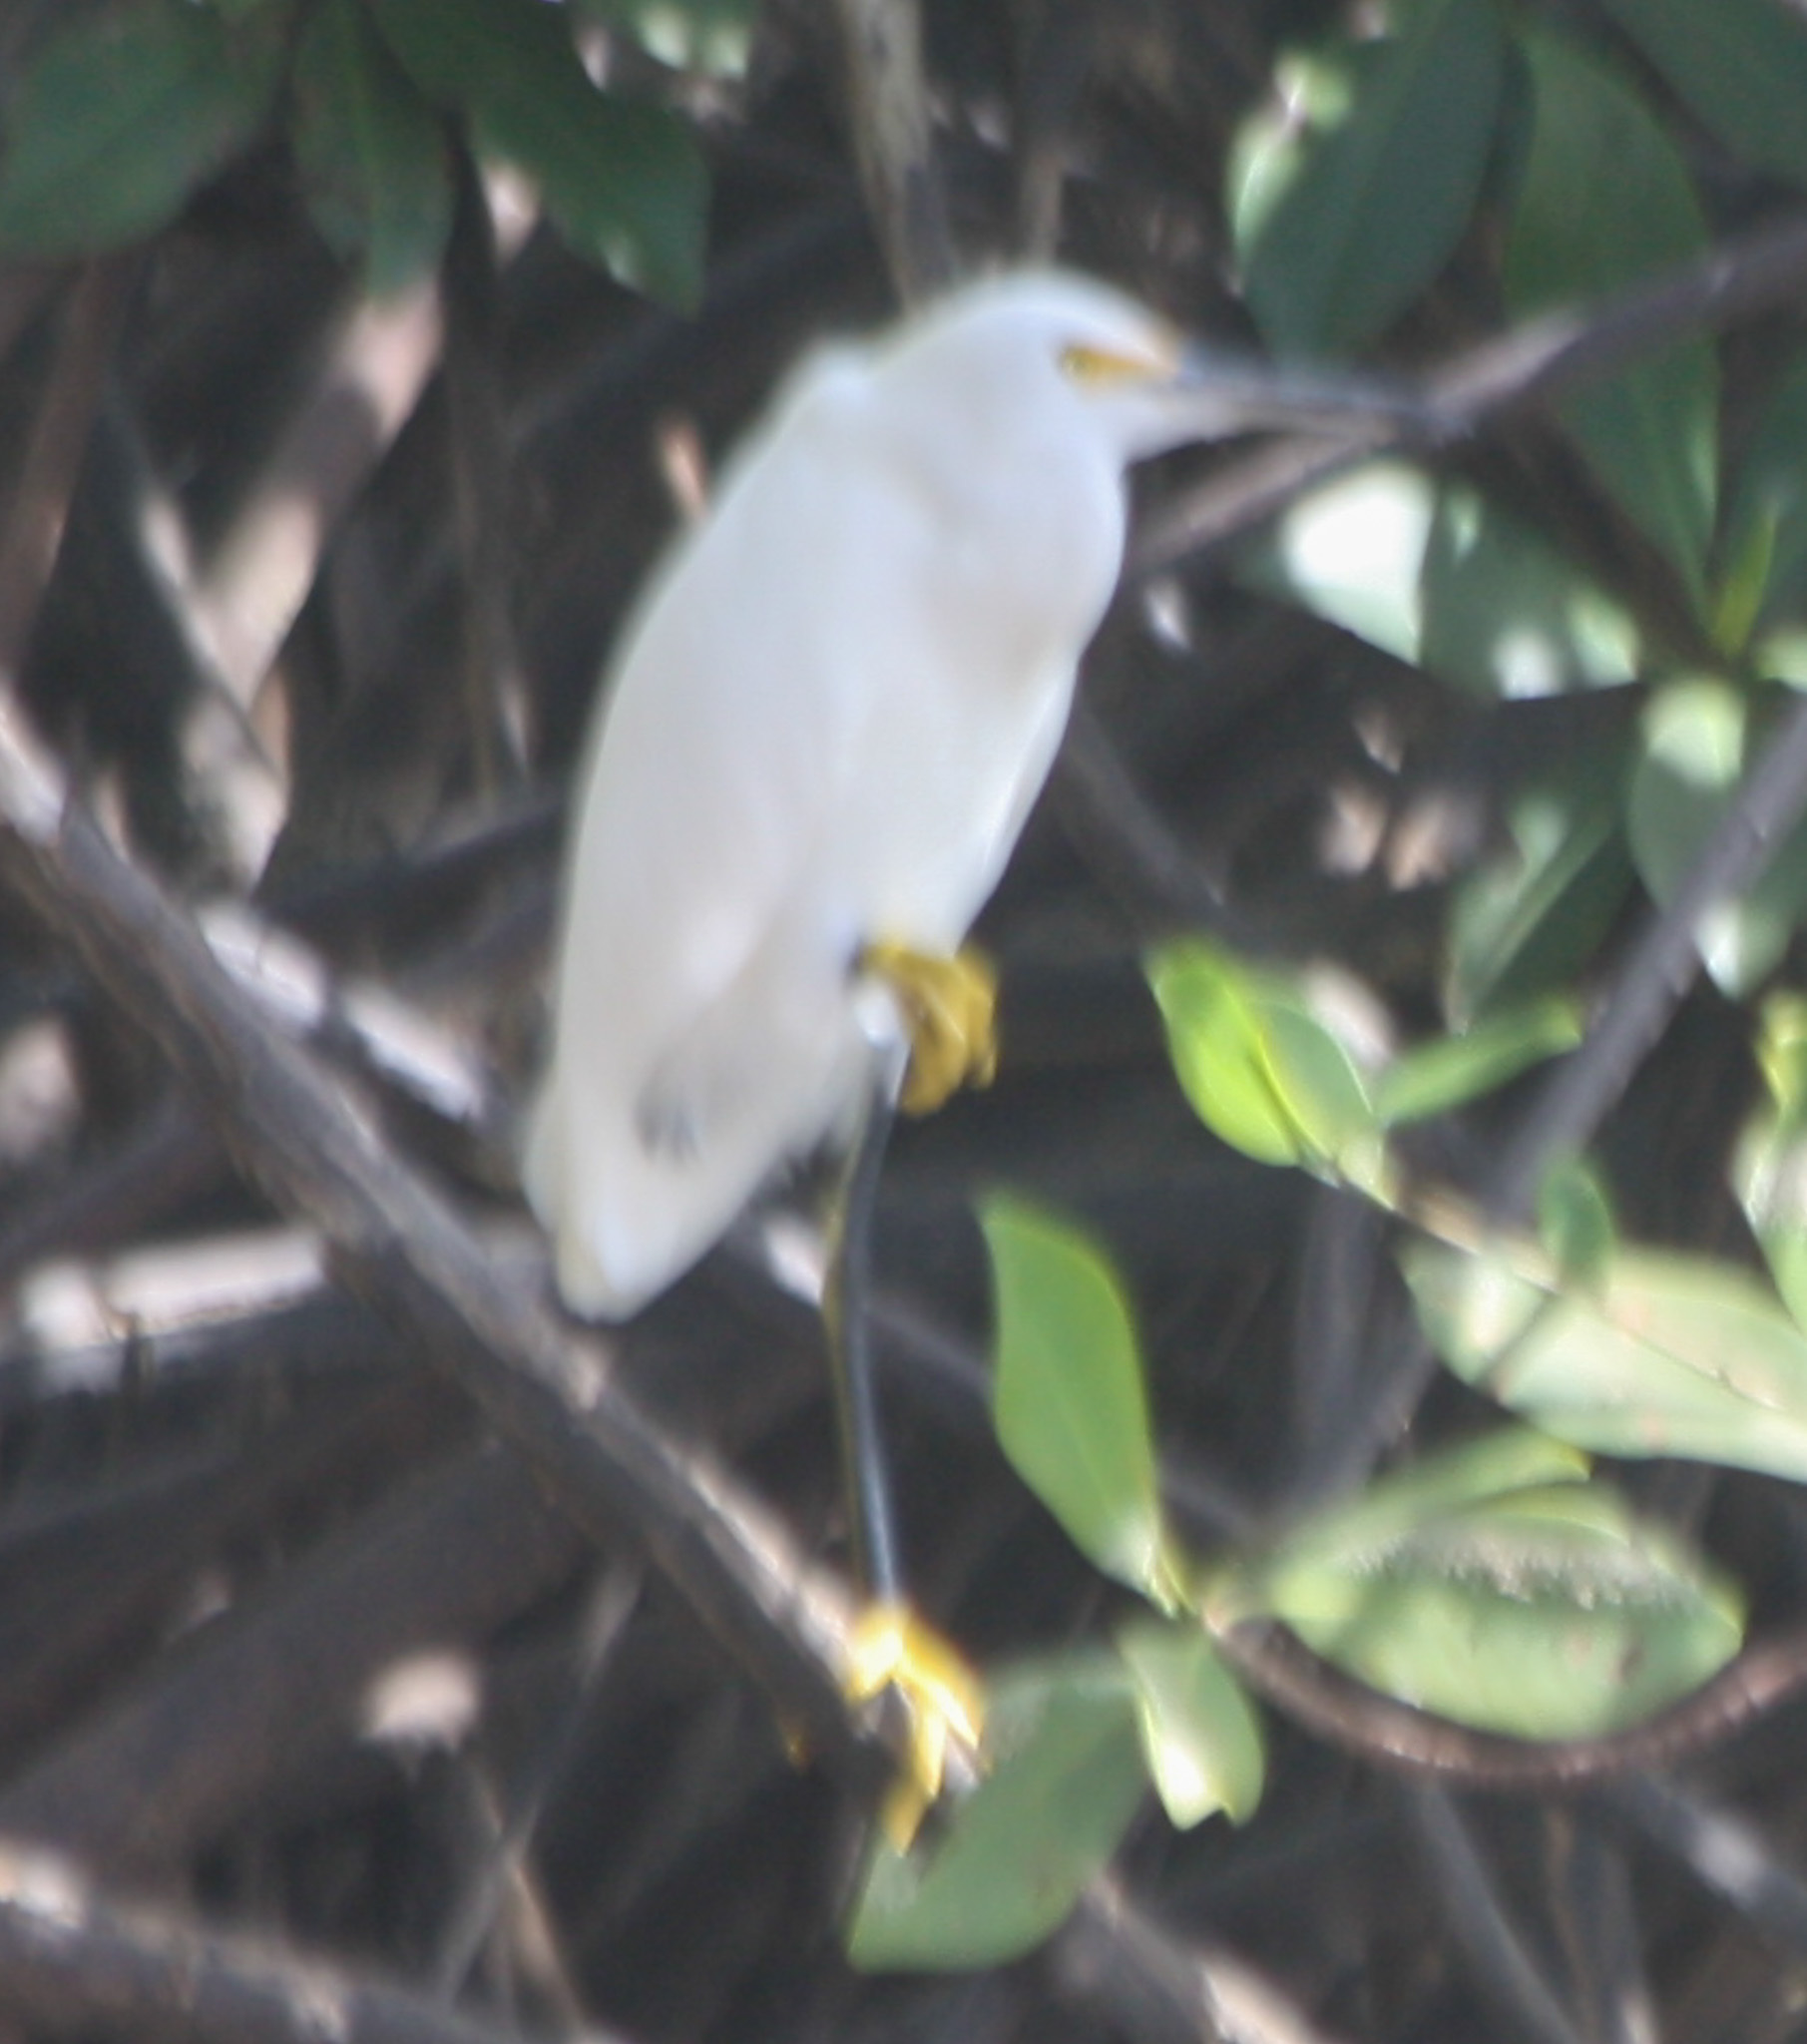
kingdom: Animalia
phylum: Chordata
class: Aves
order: Pelecaniformes
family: Ardeidae
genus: Egretta
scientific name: Egretta thula
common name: Snowy egret
